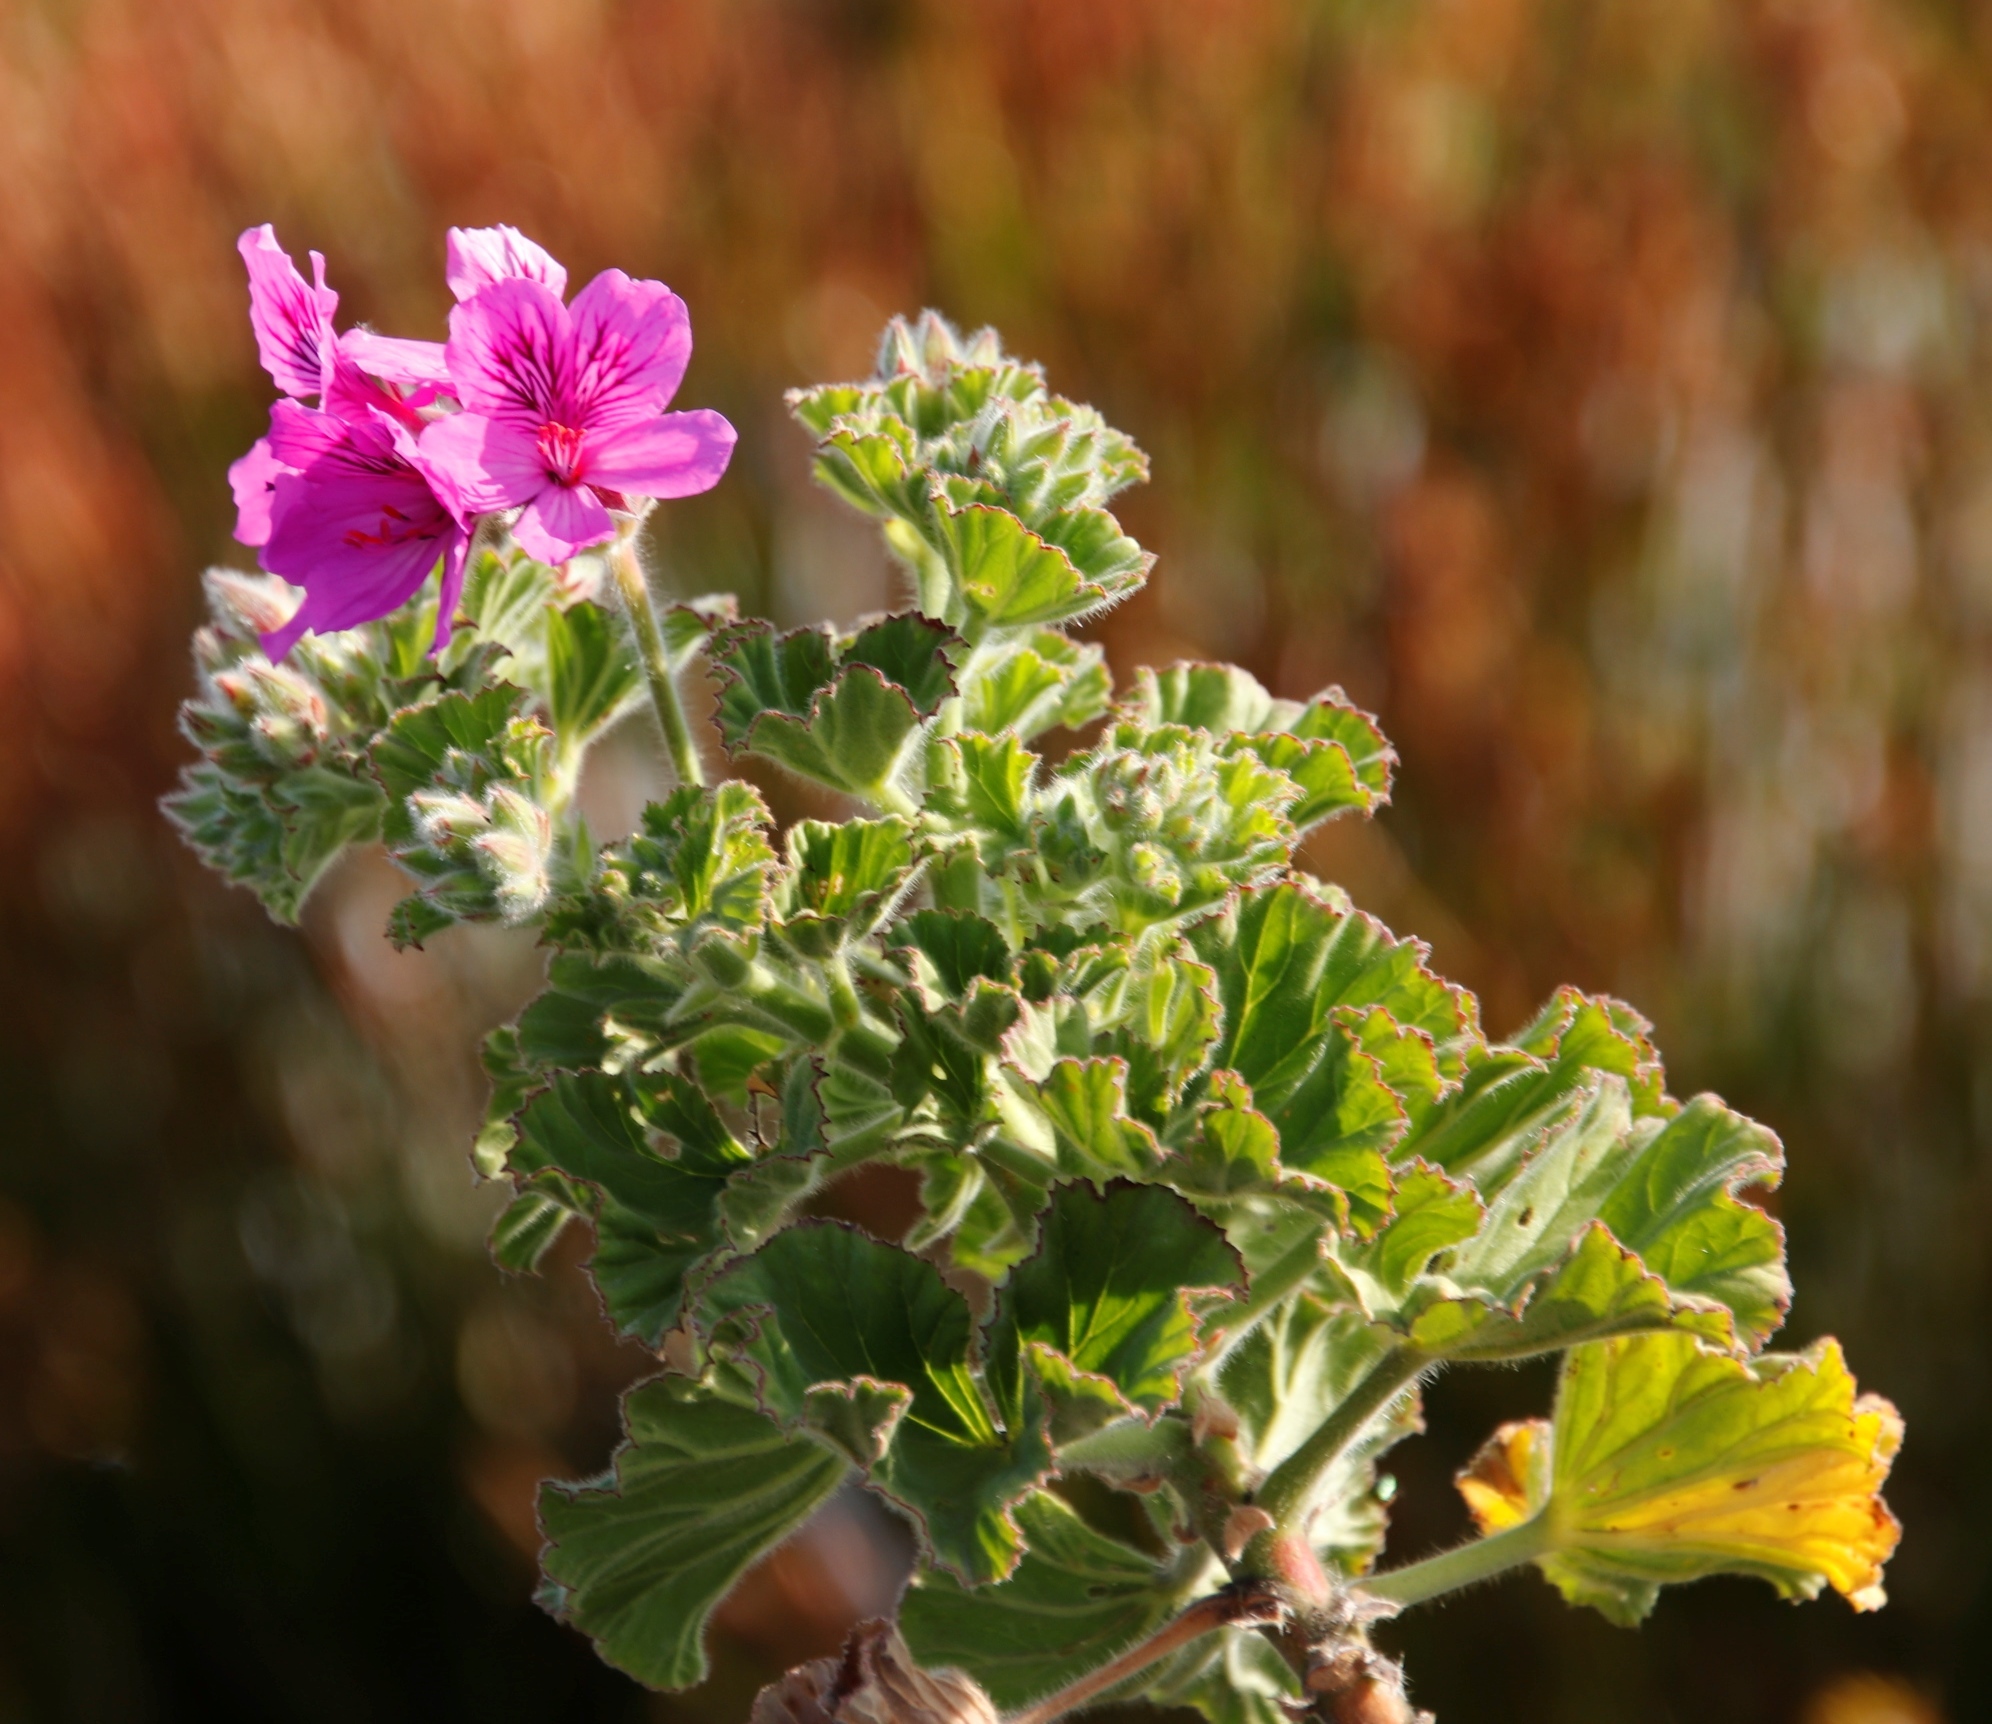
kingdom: Plantae
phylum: Tracheophyta
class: Magnoliopsida
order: Geraniales
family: Geraniaceae
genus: Pelargonium
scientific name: Pelargonium cucullatum
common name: Tree pelargonium
